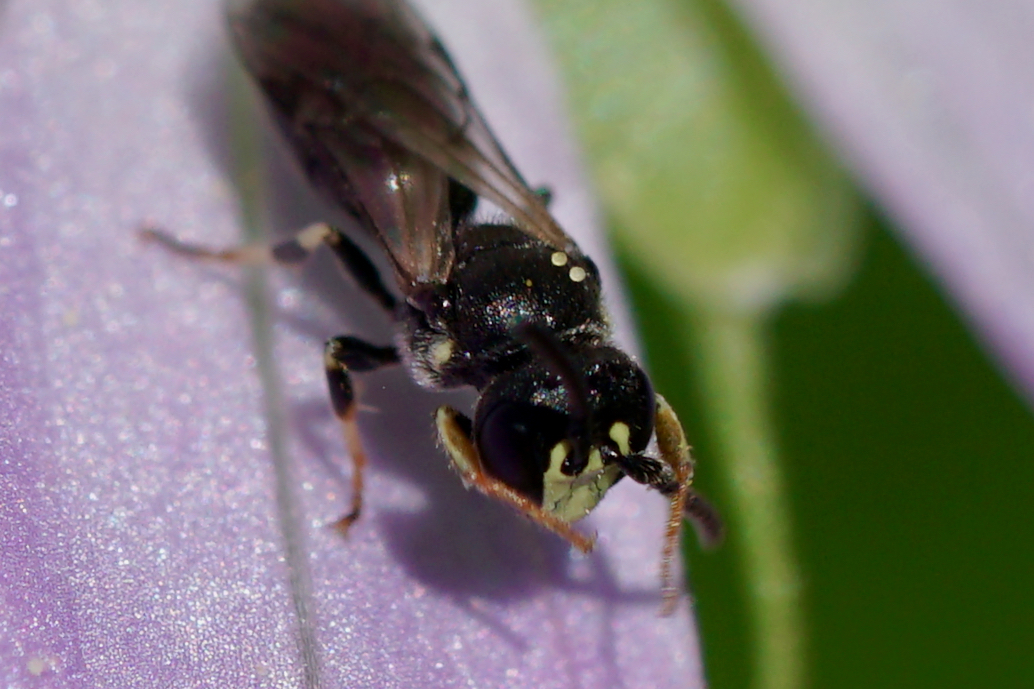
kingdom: Animalia
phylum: Arthropoda
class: Insecta
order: Hymenoptera
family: Colletidae
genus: Hylaeus
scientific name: Hylaeus mesillae
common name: Mesilla masked bee
